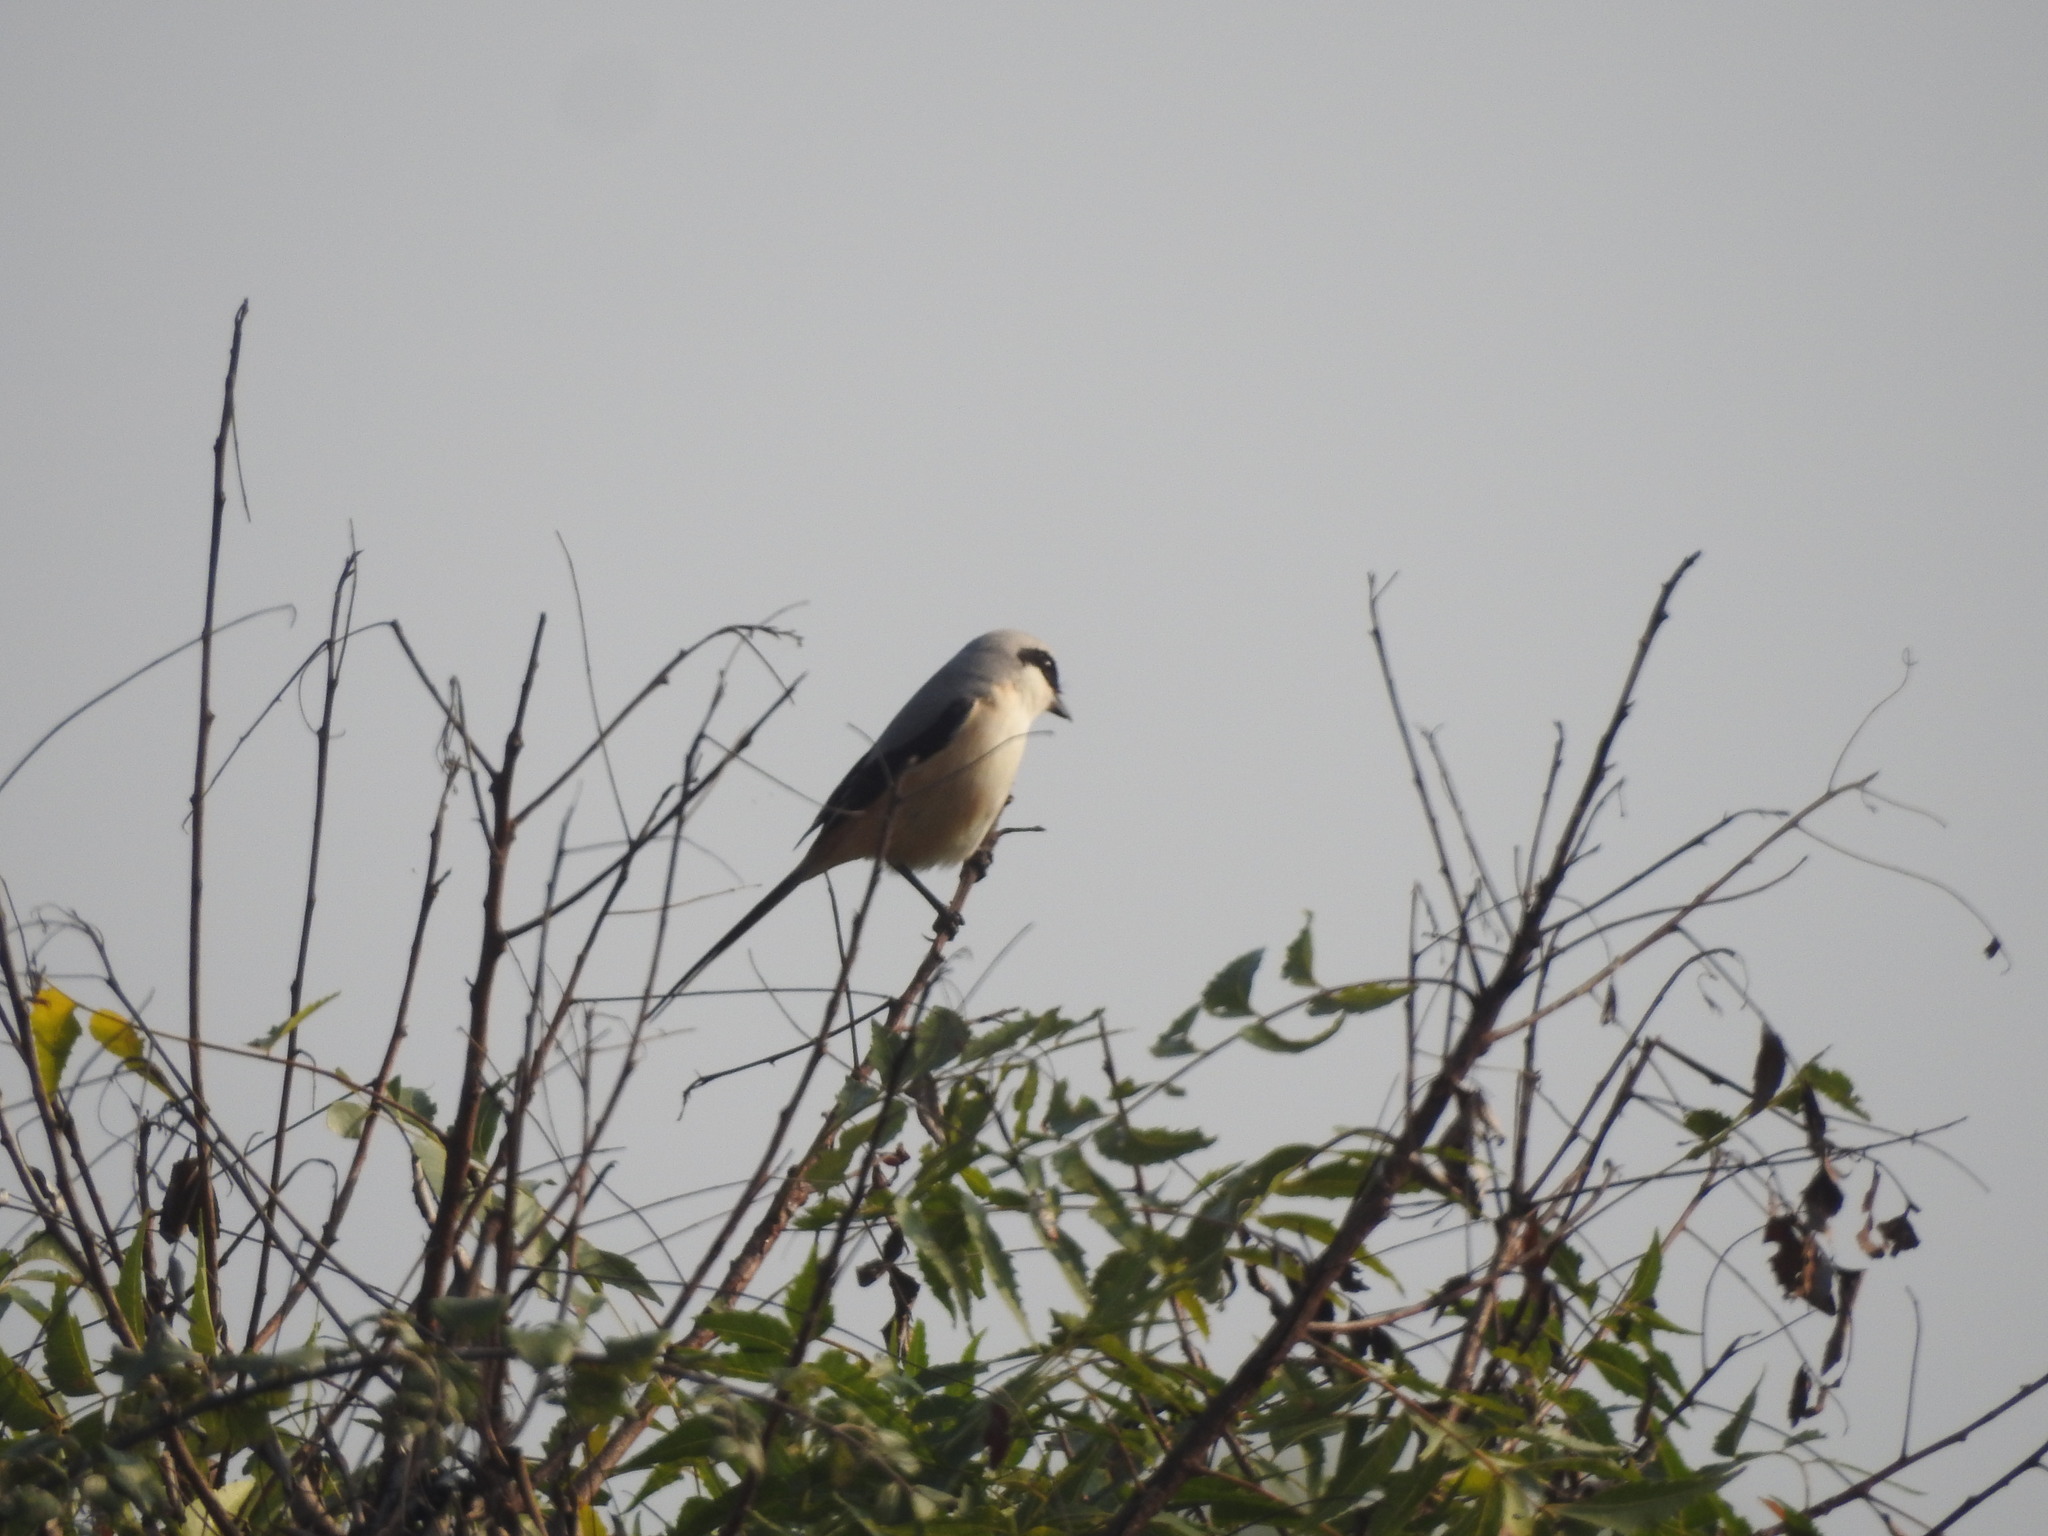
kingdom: Animalia
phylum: Chordata
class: Aves
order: Passeriformes
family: Laniidae
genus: Lanius
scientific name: Lanius schach
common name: Long-tailed shrike
